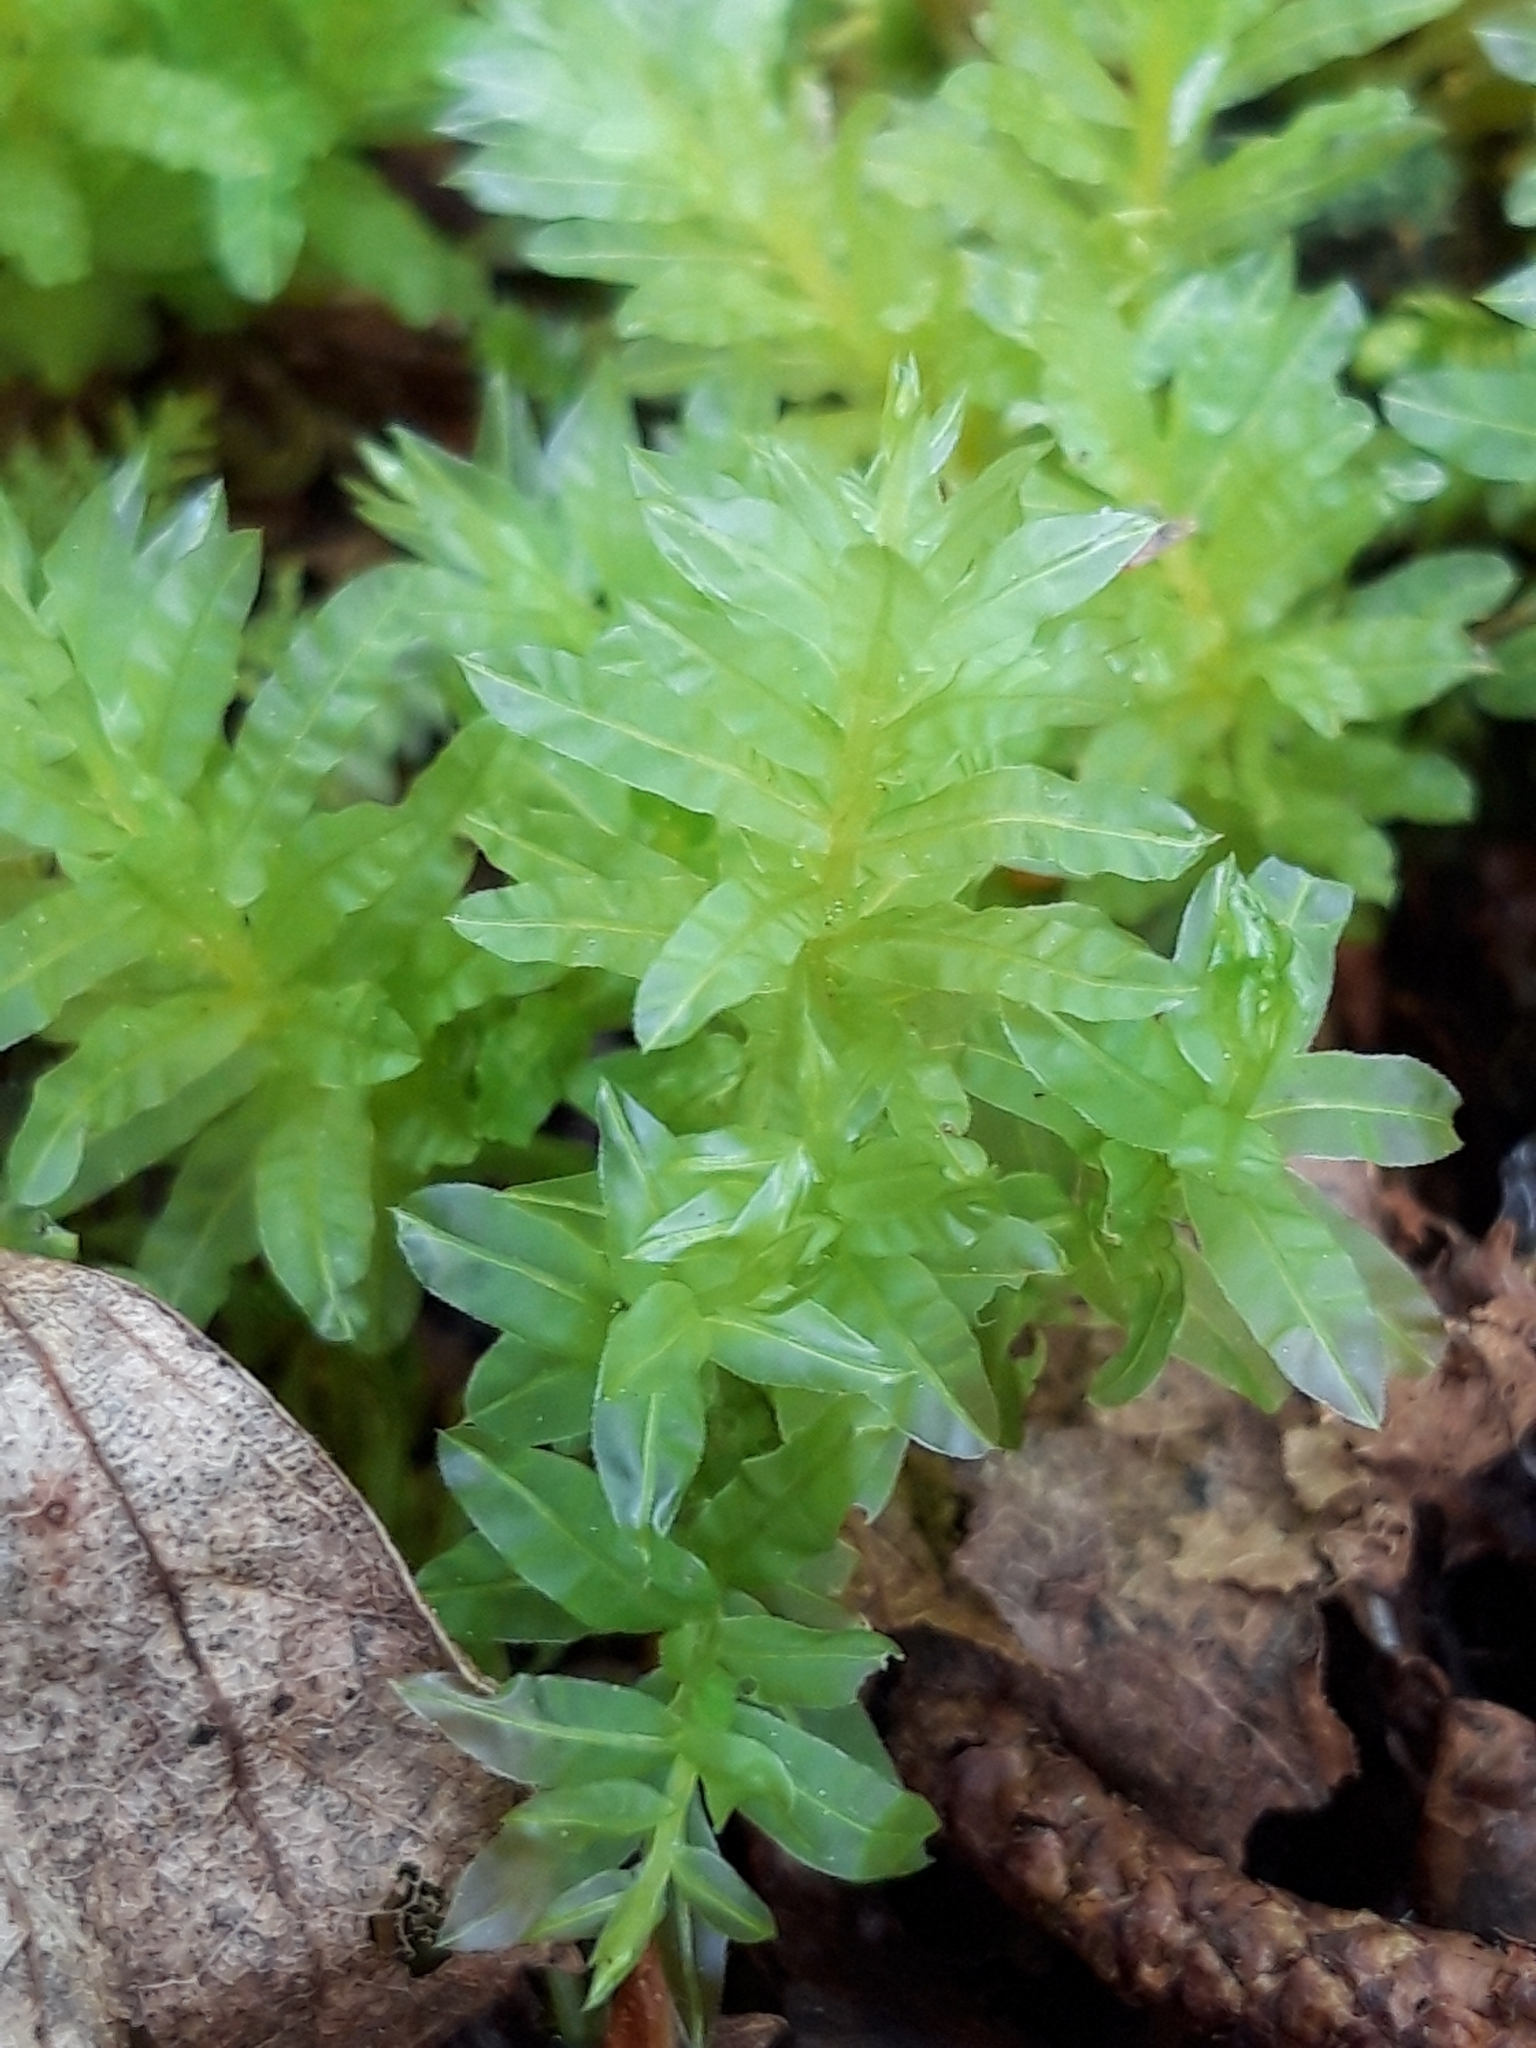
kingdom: Plantae
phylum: Bryophyta
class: Bryopsida
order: Bryales
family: Mniaceae
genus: Plagiomnium
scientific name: Plagiomnium undulatum
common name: Hart's-tongue thyme-moss
